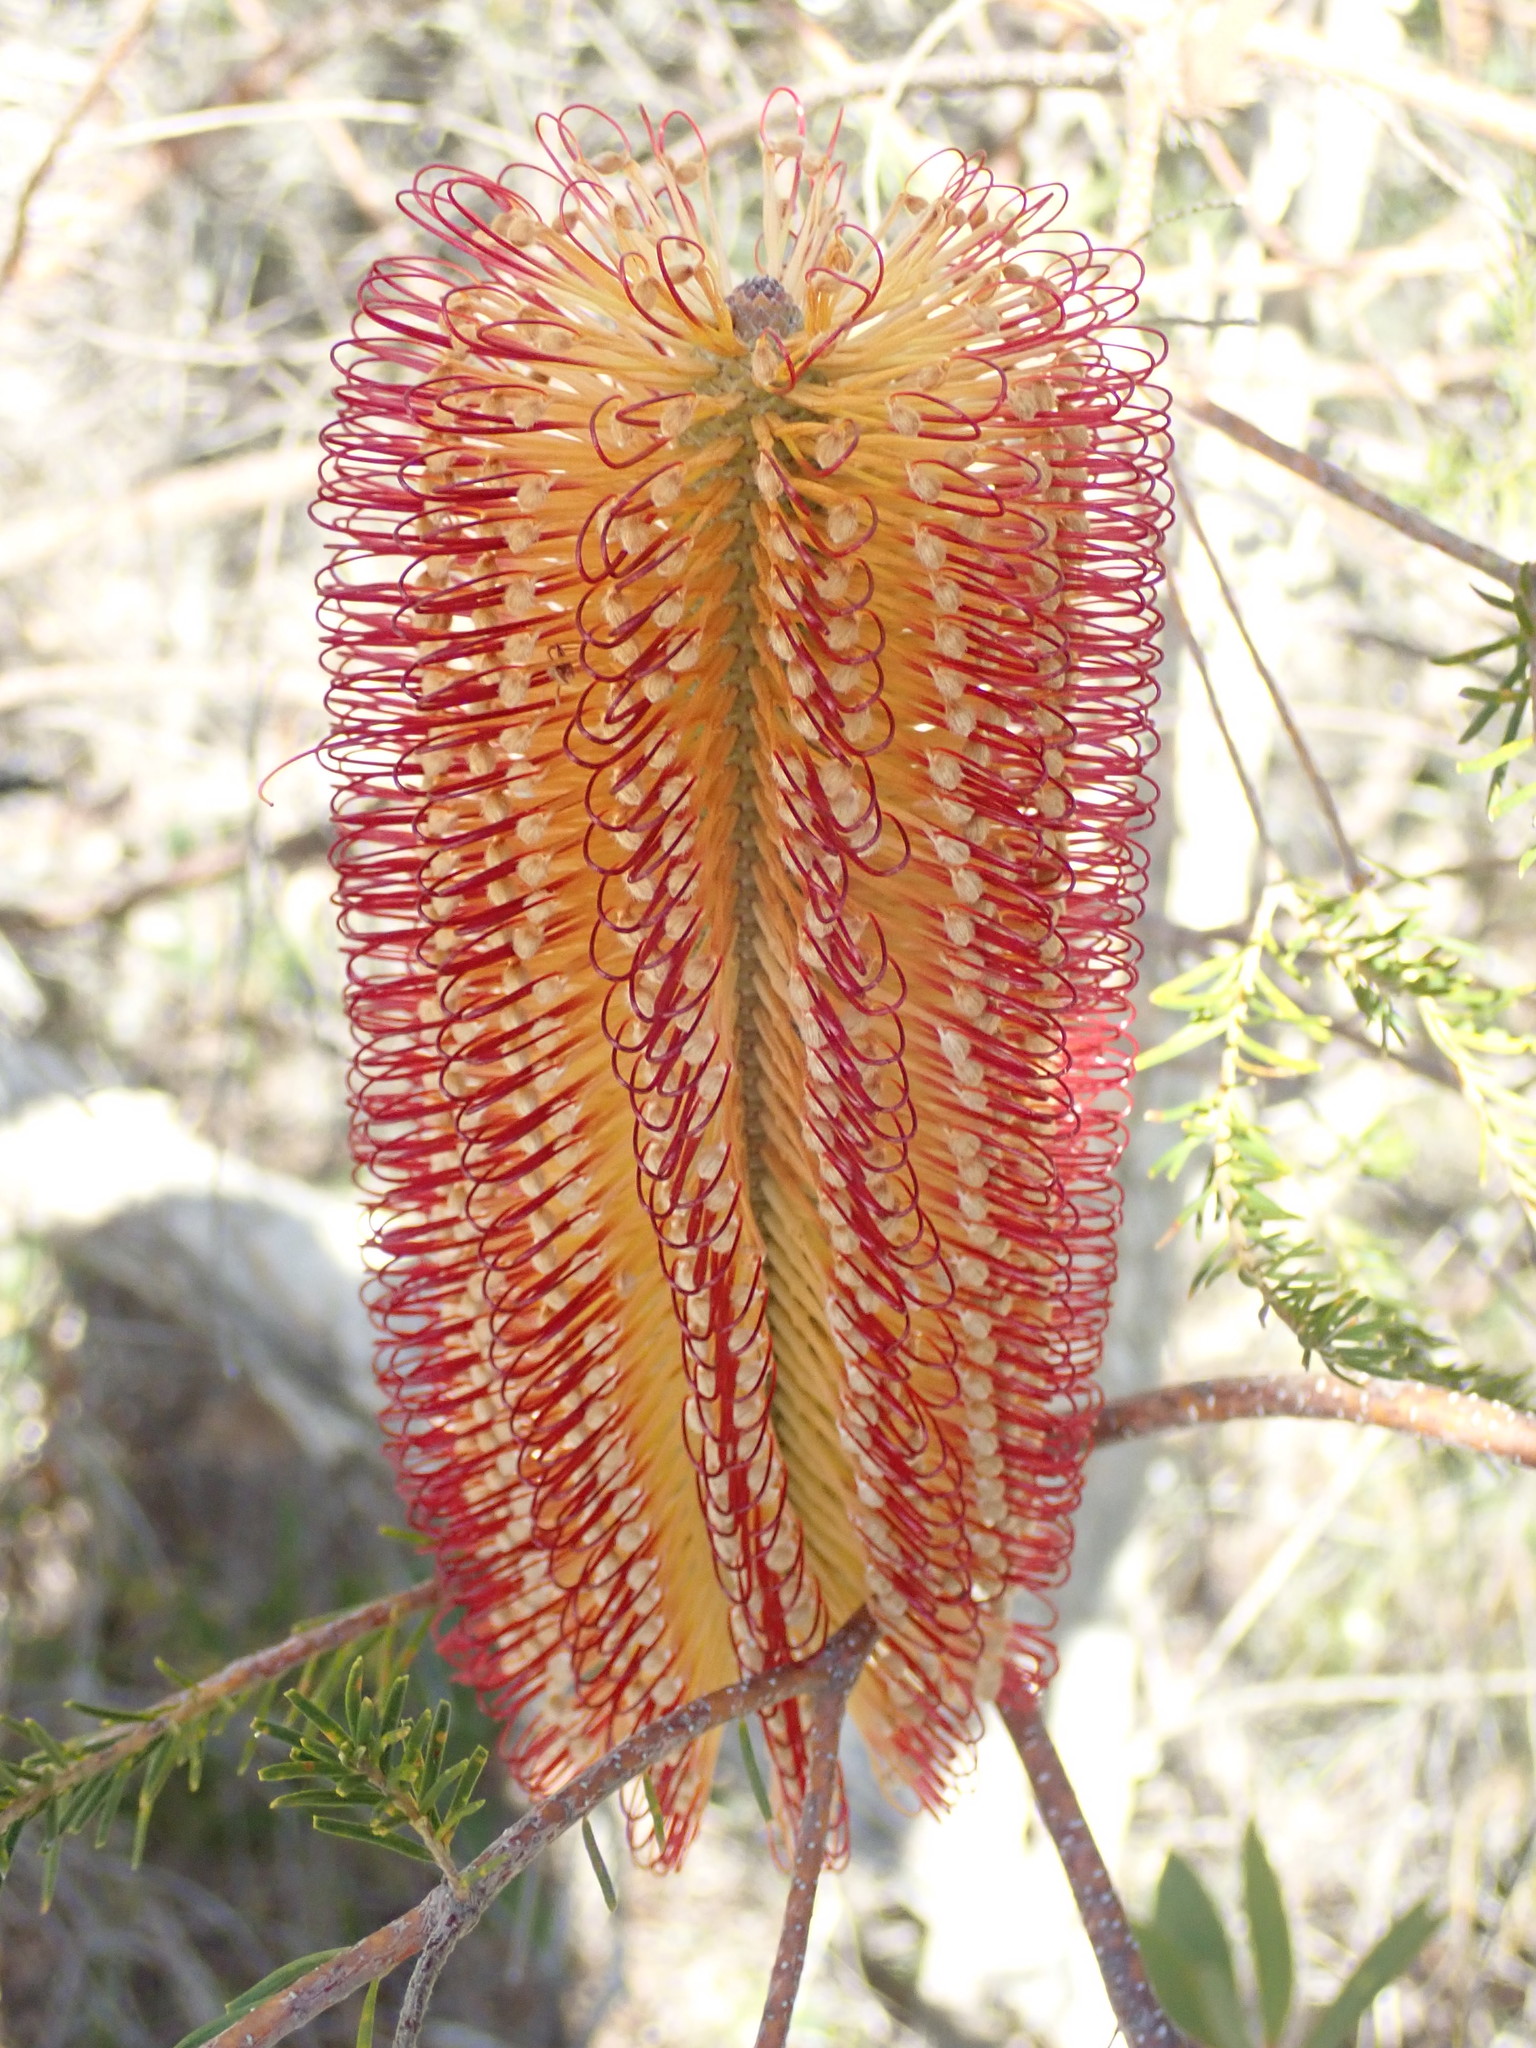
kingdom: Plantae
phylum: Tracheophyta
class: Magnoliopsida
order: Proteales
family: Proteaceae
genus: Banksia
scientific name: Banksia ericifolia
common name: Heath-leaf banksia
